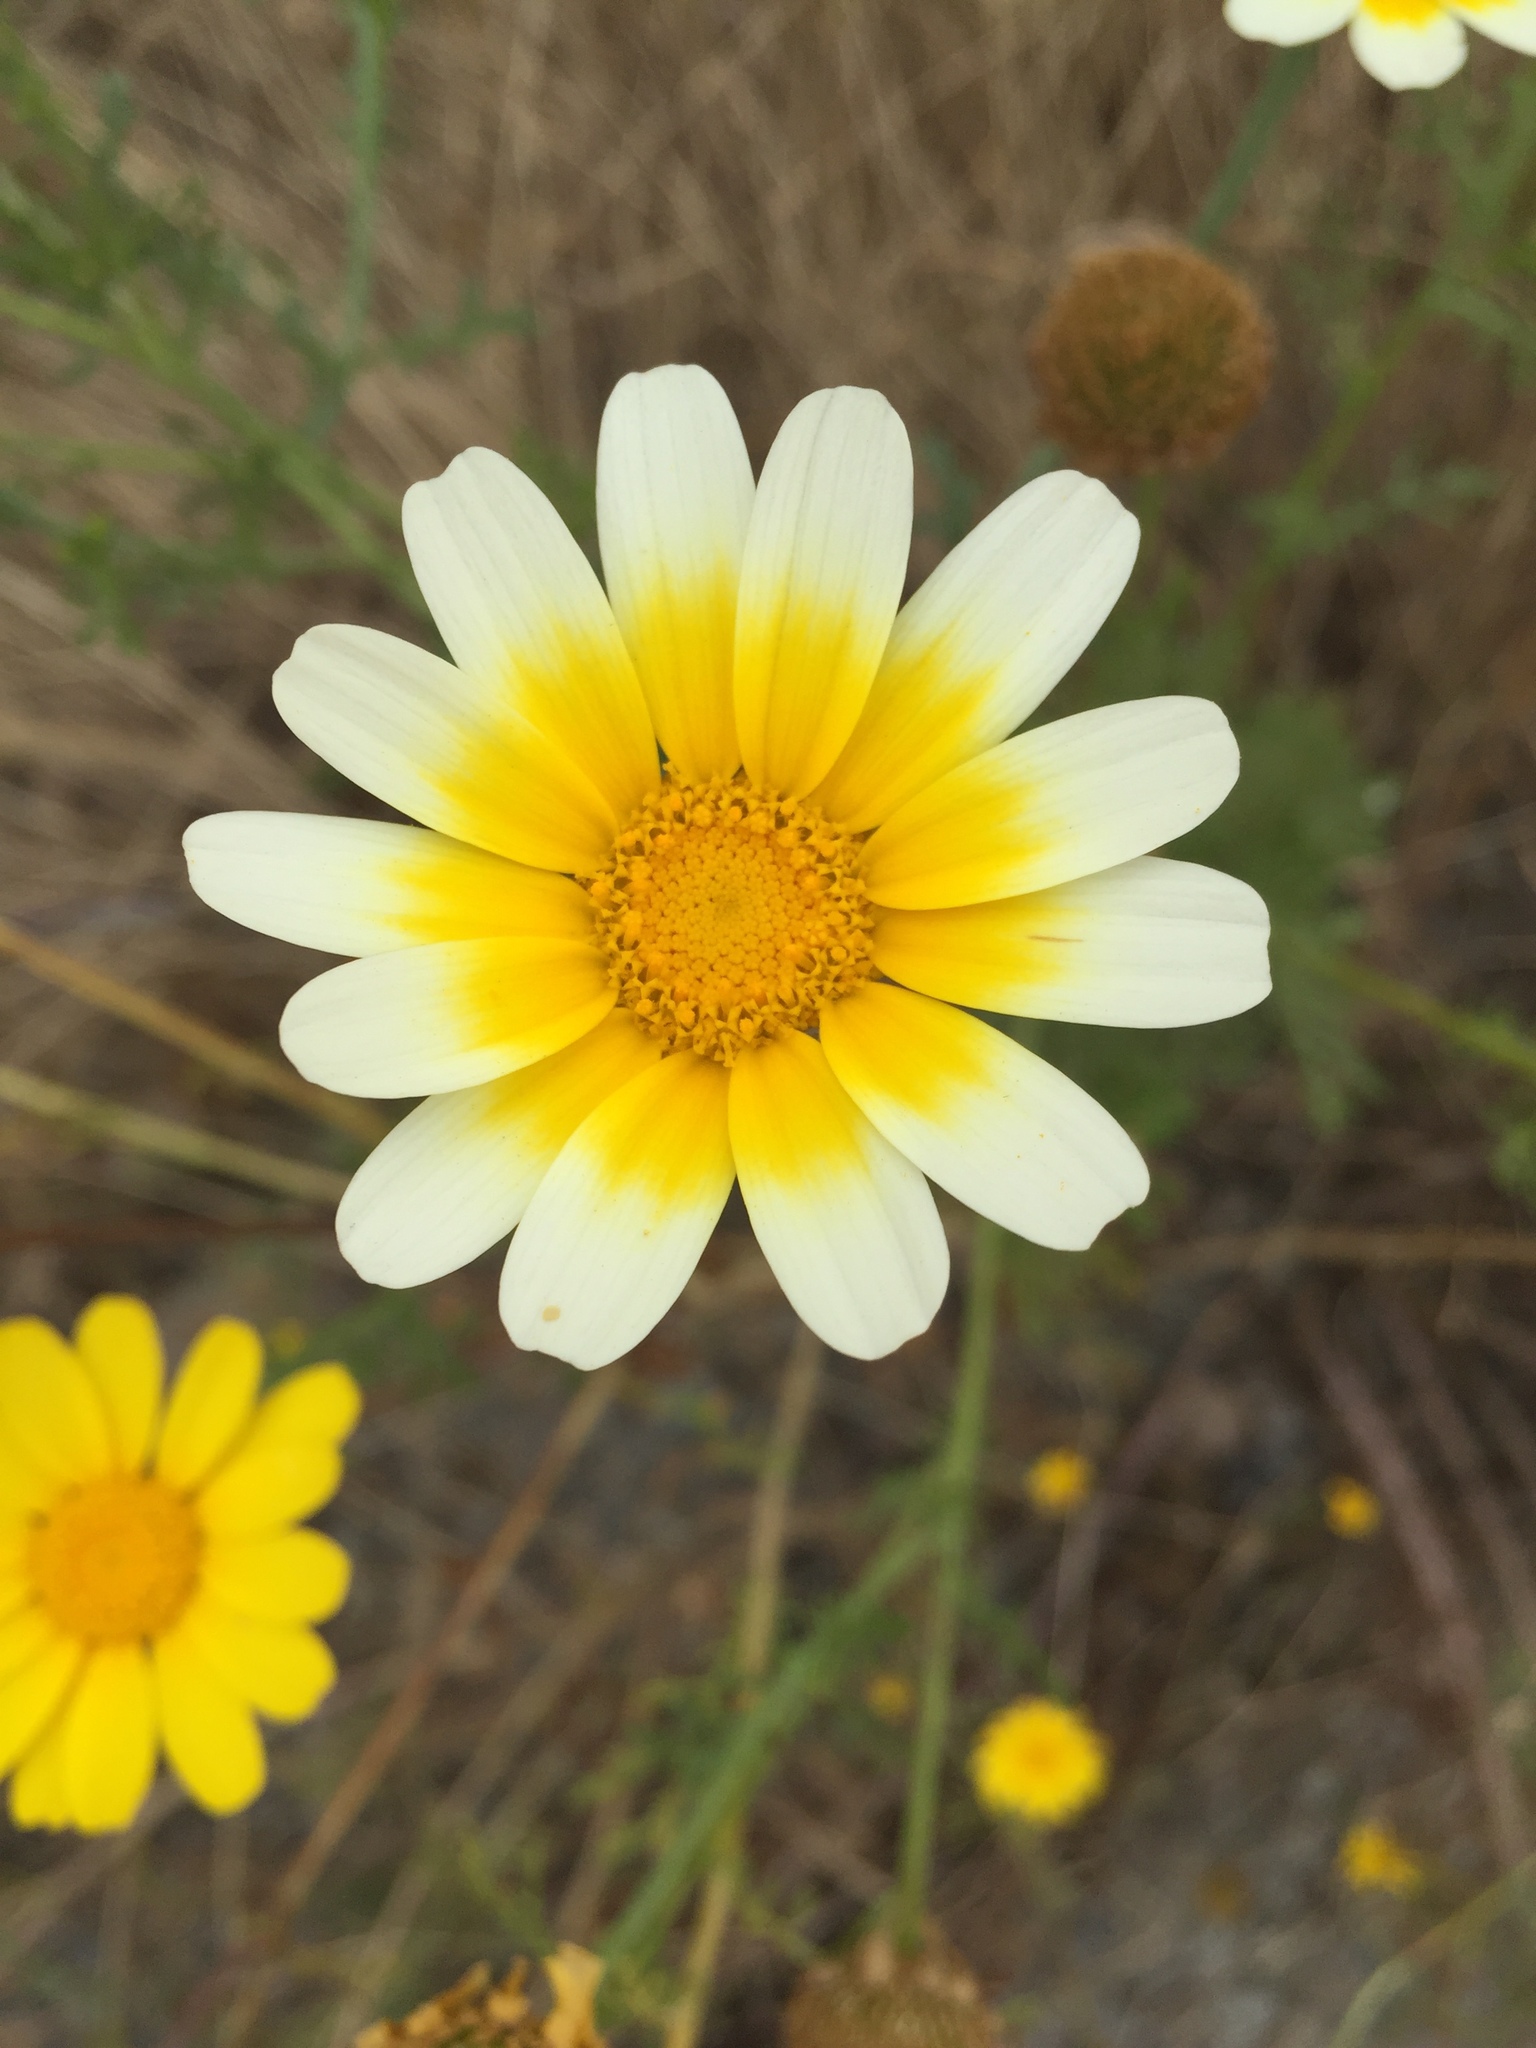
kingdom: Plantae
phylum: Tracheophyta
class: Magnoliopsida
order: Asterales
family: Asteraceae
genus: Glebionis
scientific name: Glebionis coronaria
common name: Crowndaisy
